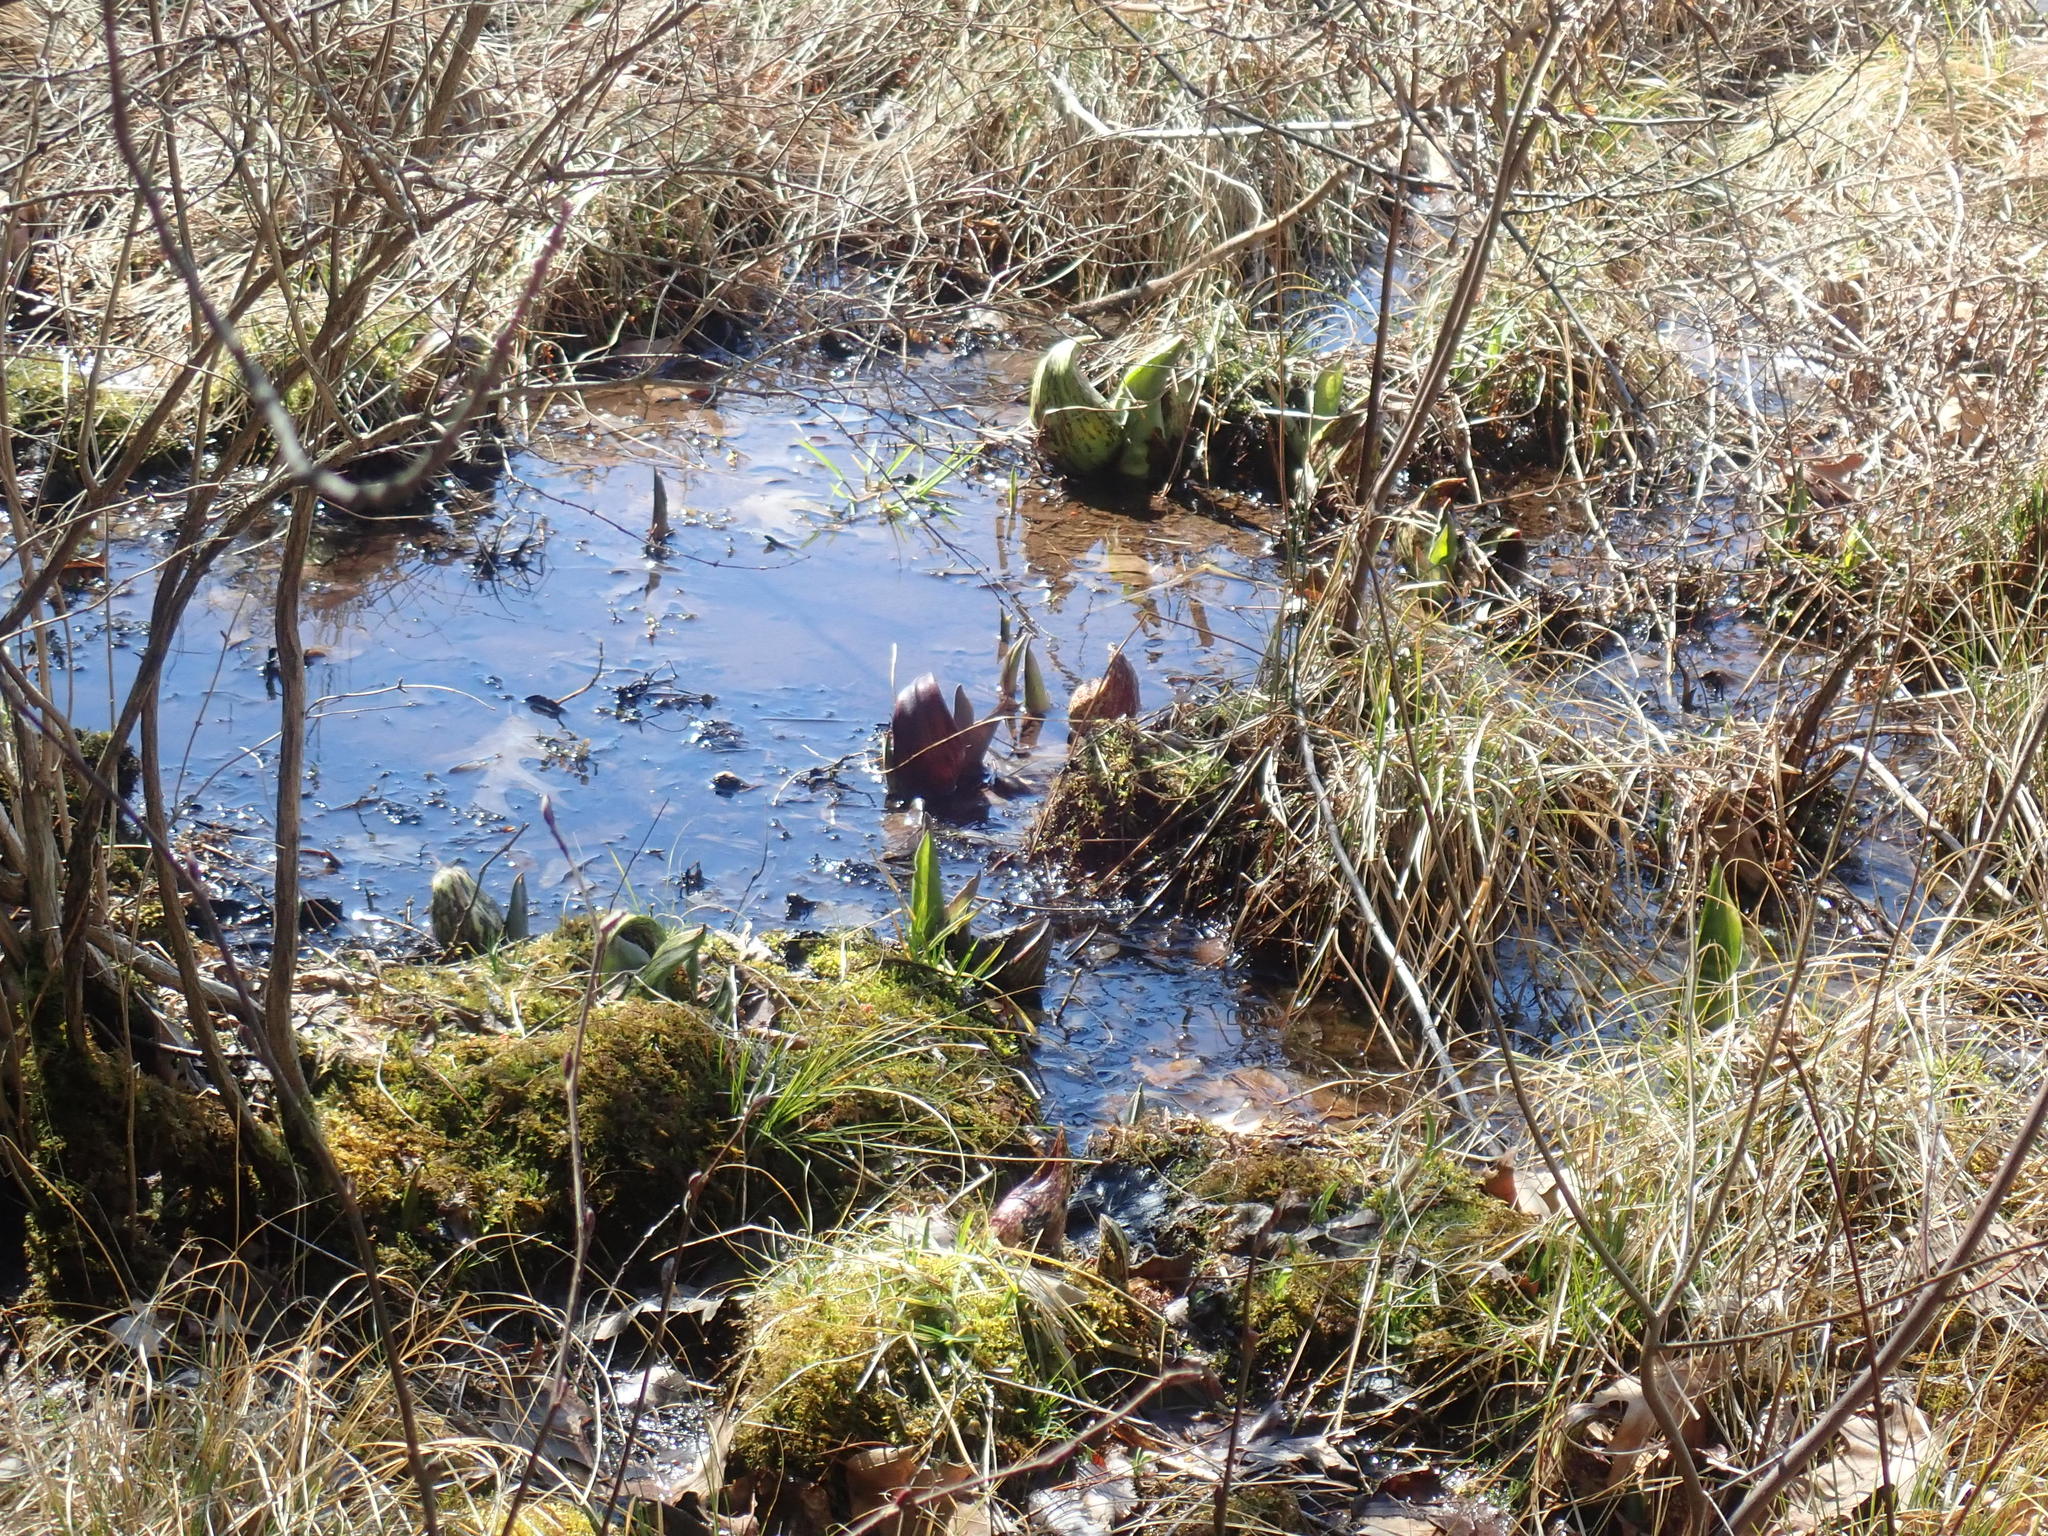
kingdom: Plantae
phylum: Tracheophyta
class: Liliopsida
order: Alismatales
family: Araceae
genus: Symplocarpus
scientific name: Symplocarpus foetidus
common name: Eastern skunk cabbage
